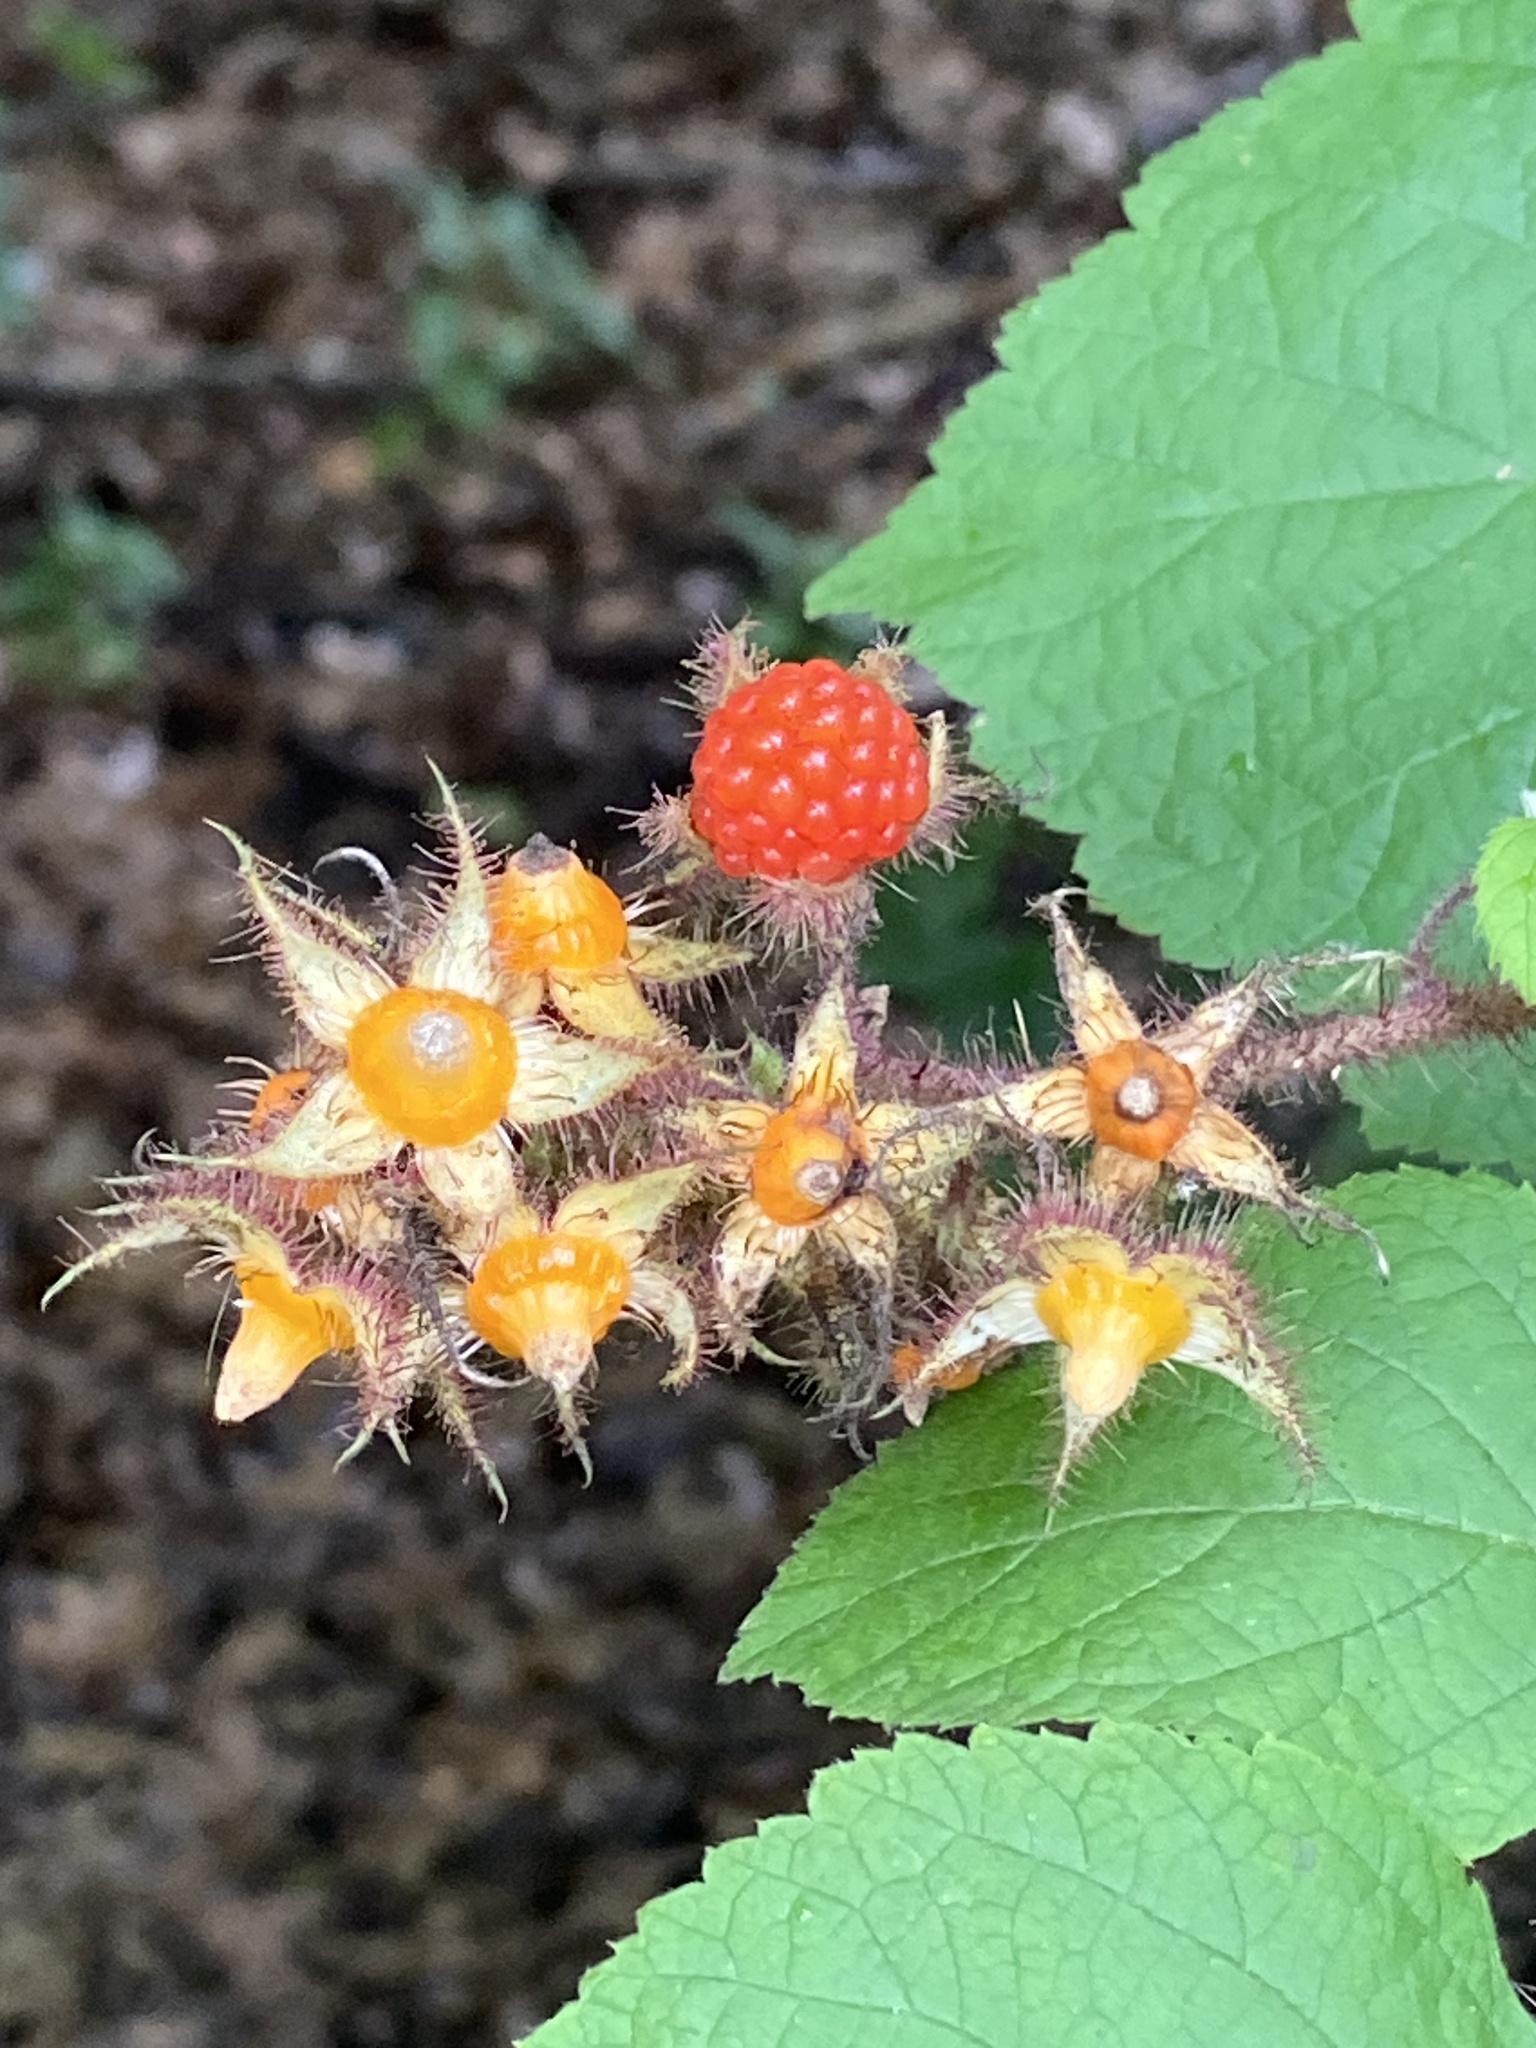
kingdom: Plantae
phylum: Tracheophyta
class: Magnoliopsida
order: Rosales
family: Rosaceae
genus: Rubus
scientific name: Rubus phoenicolasius
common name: Japanese wineberry
